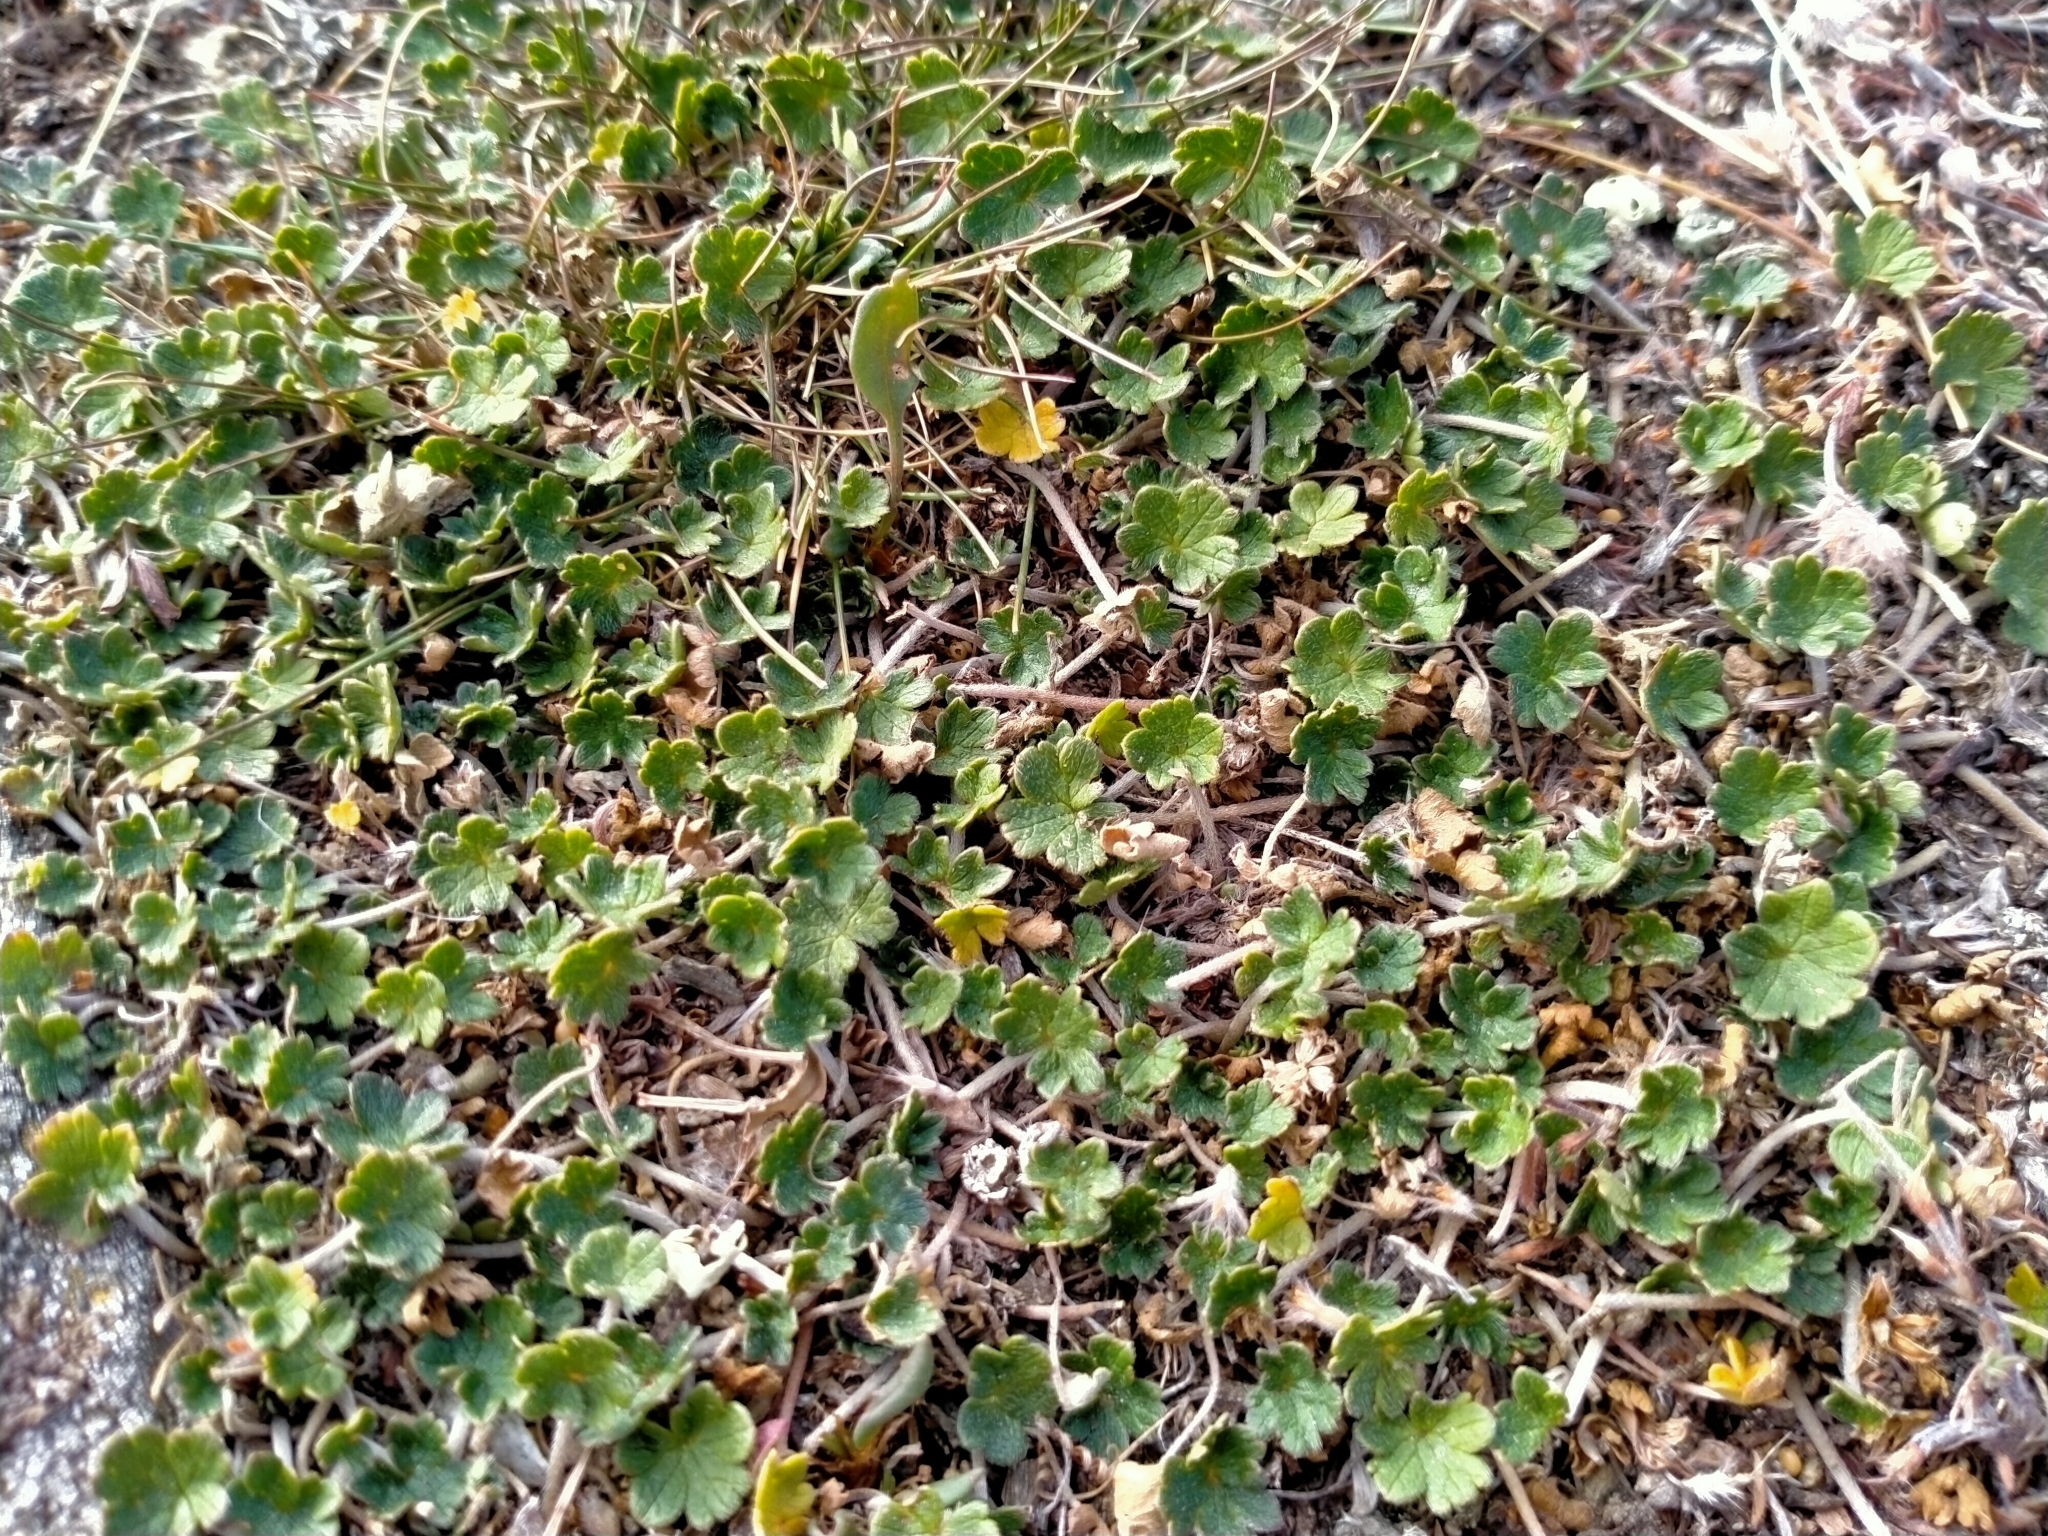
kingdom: Plantae
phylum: Tracheophyta
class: Magnoliopsida
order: Geraniales
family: Geraniaceae
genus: Geranium
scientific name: Geranium brevicaule
